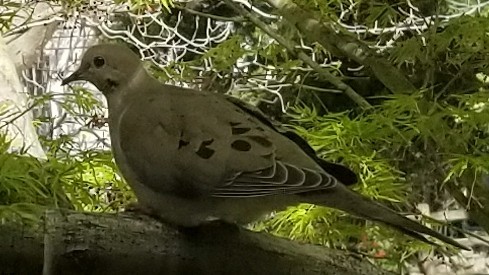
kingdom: Animalia
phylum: Chordata
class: Aves
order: Columbiformes
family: Columbidae
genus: Zenaida
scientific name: Zenaida macroura
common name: Mourning dove
